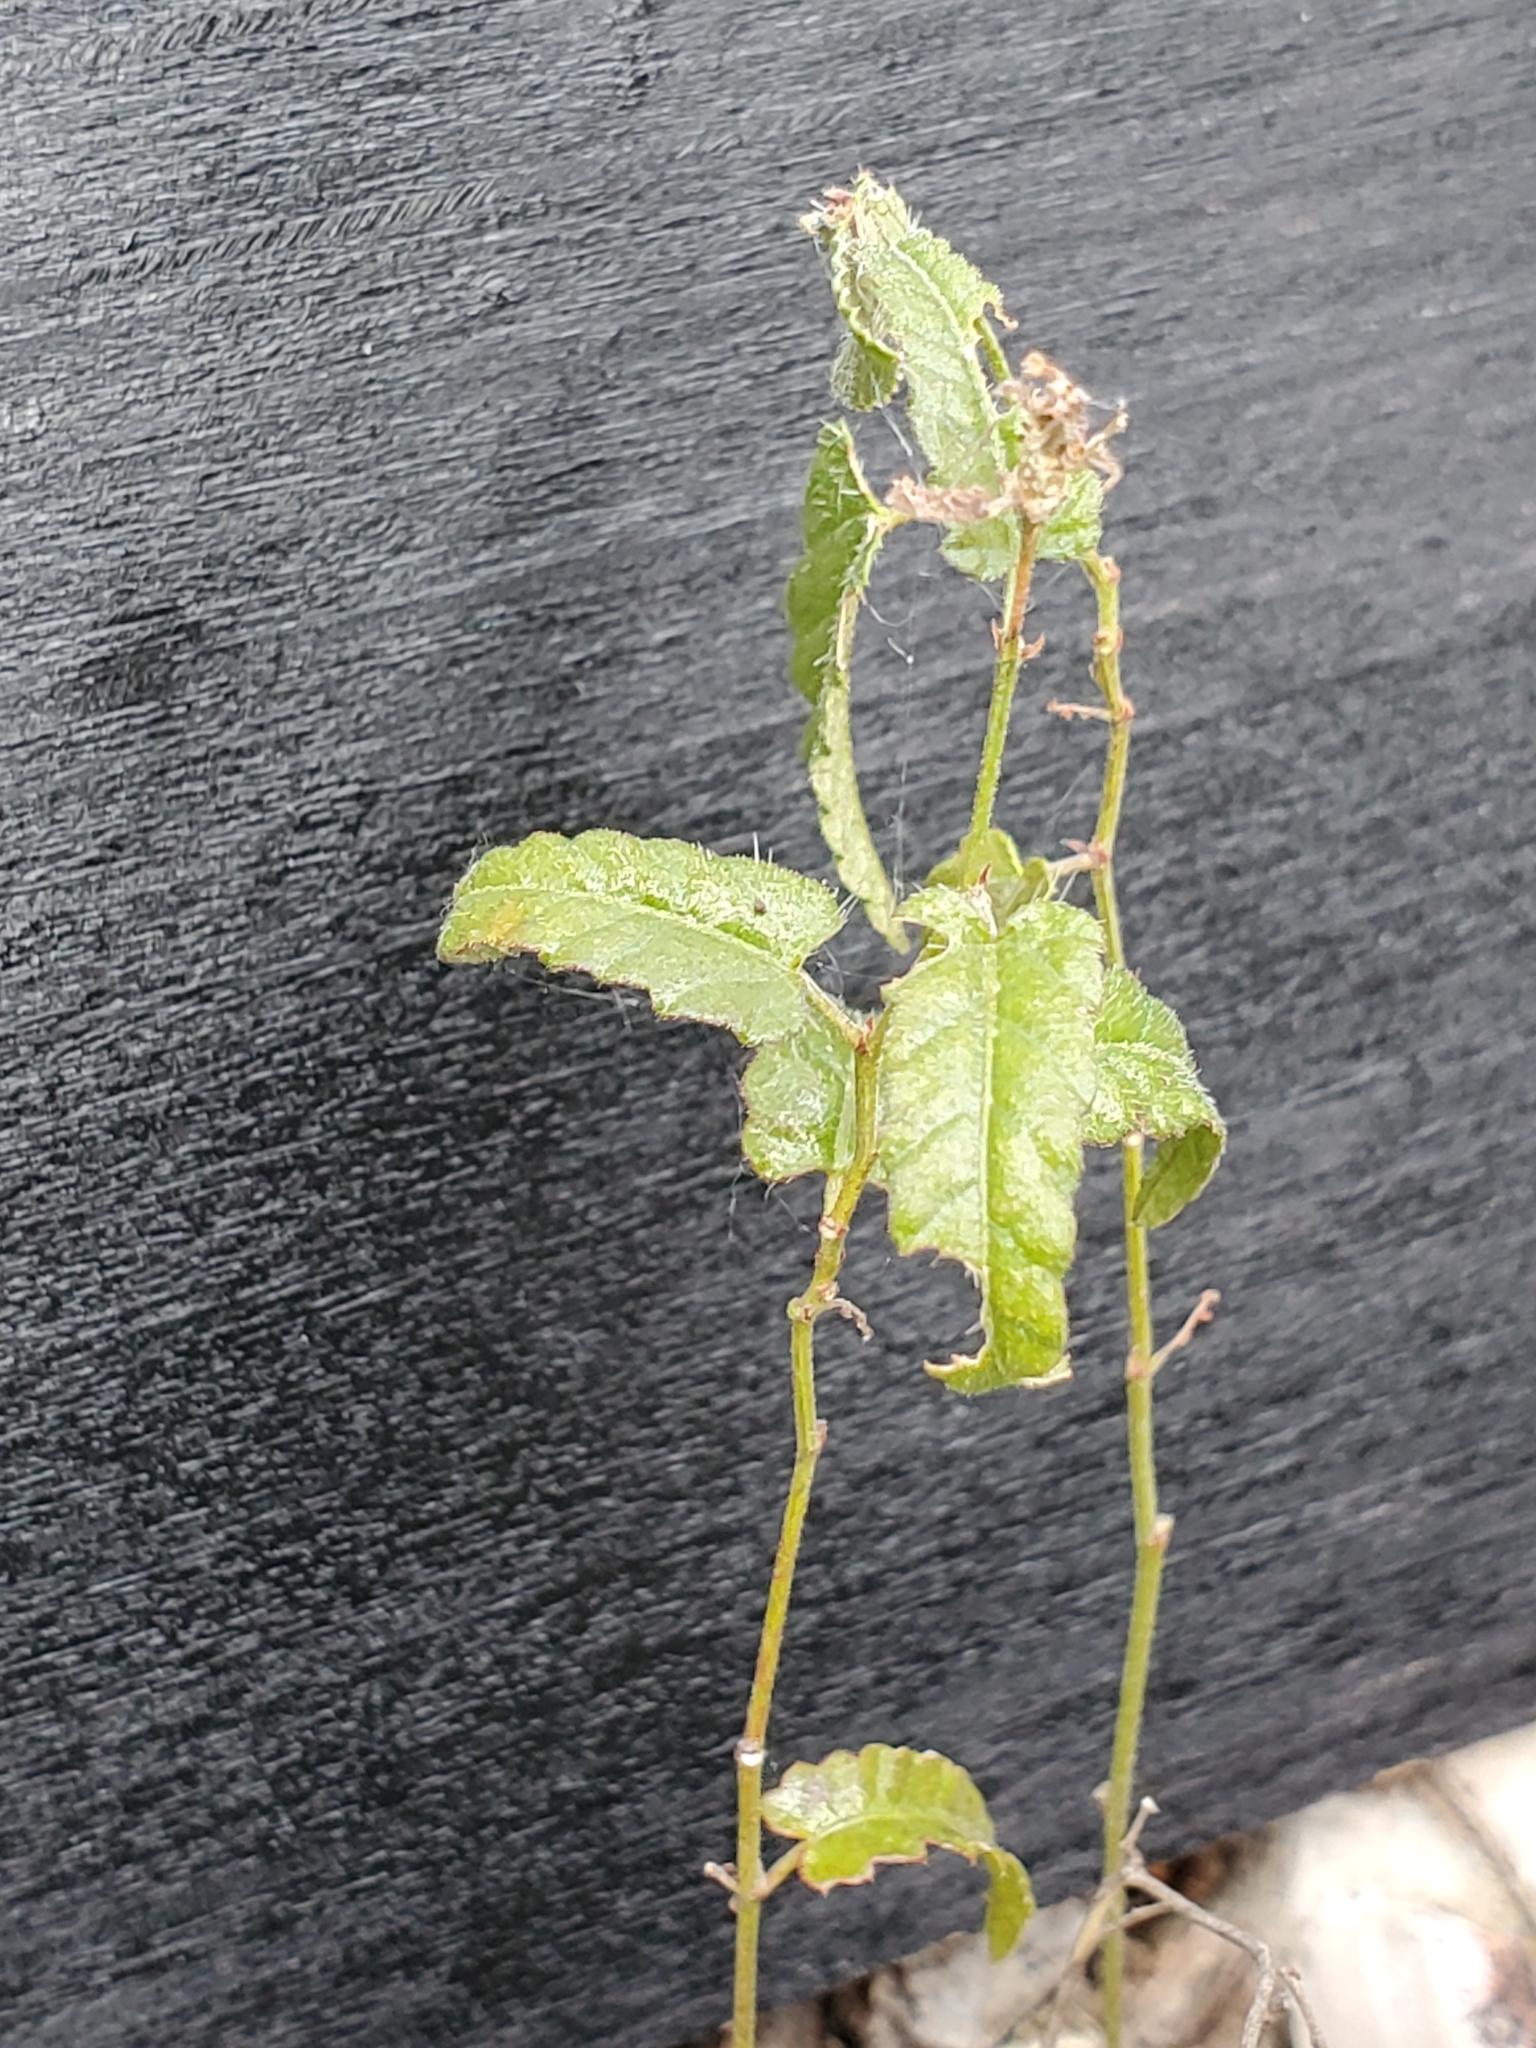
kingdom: Plantae
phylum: Tracheophyta
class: Magnoliopsida
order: Malpighiales
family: Euphorbiaceae
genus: Tragia
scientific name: Tragia ramosa
